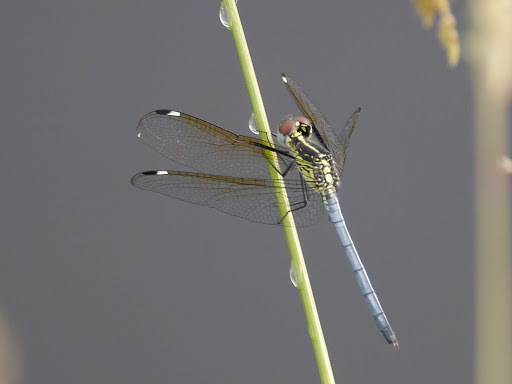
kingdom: Animalia
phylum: Arthropoda
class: Insecta
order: Odonata
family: Libellulidae
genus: Hemistigma
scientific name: Hemistigma albipunctum
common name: African pied-spot
